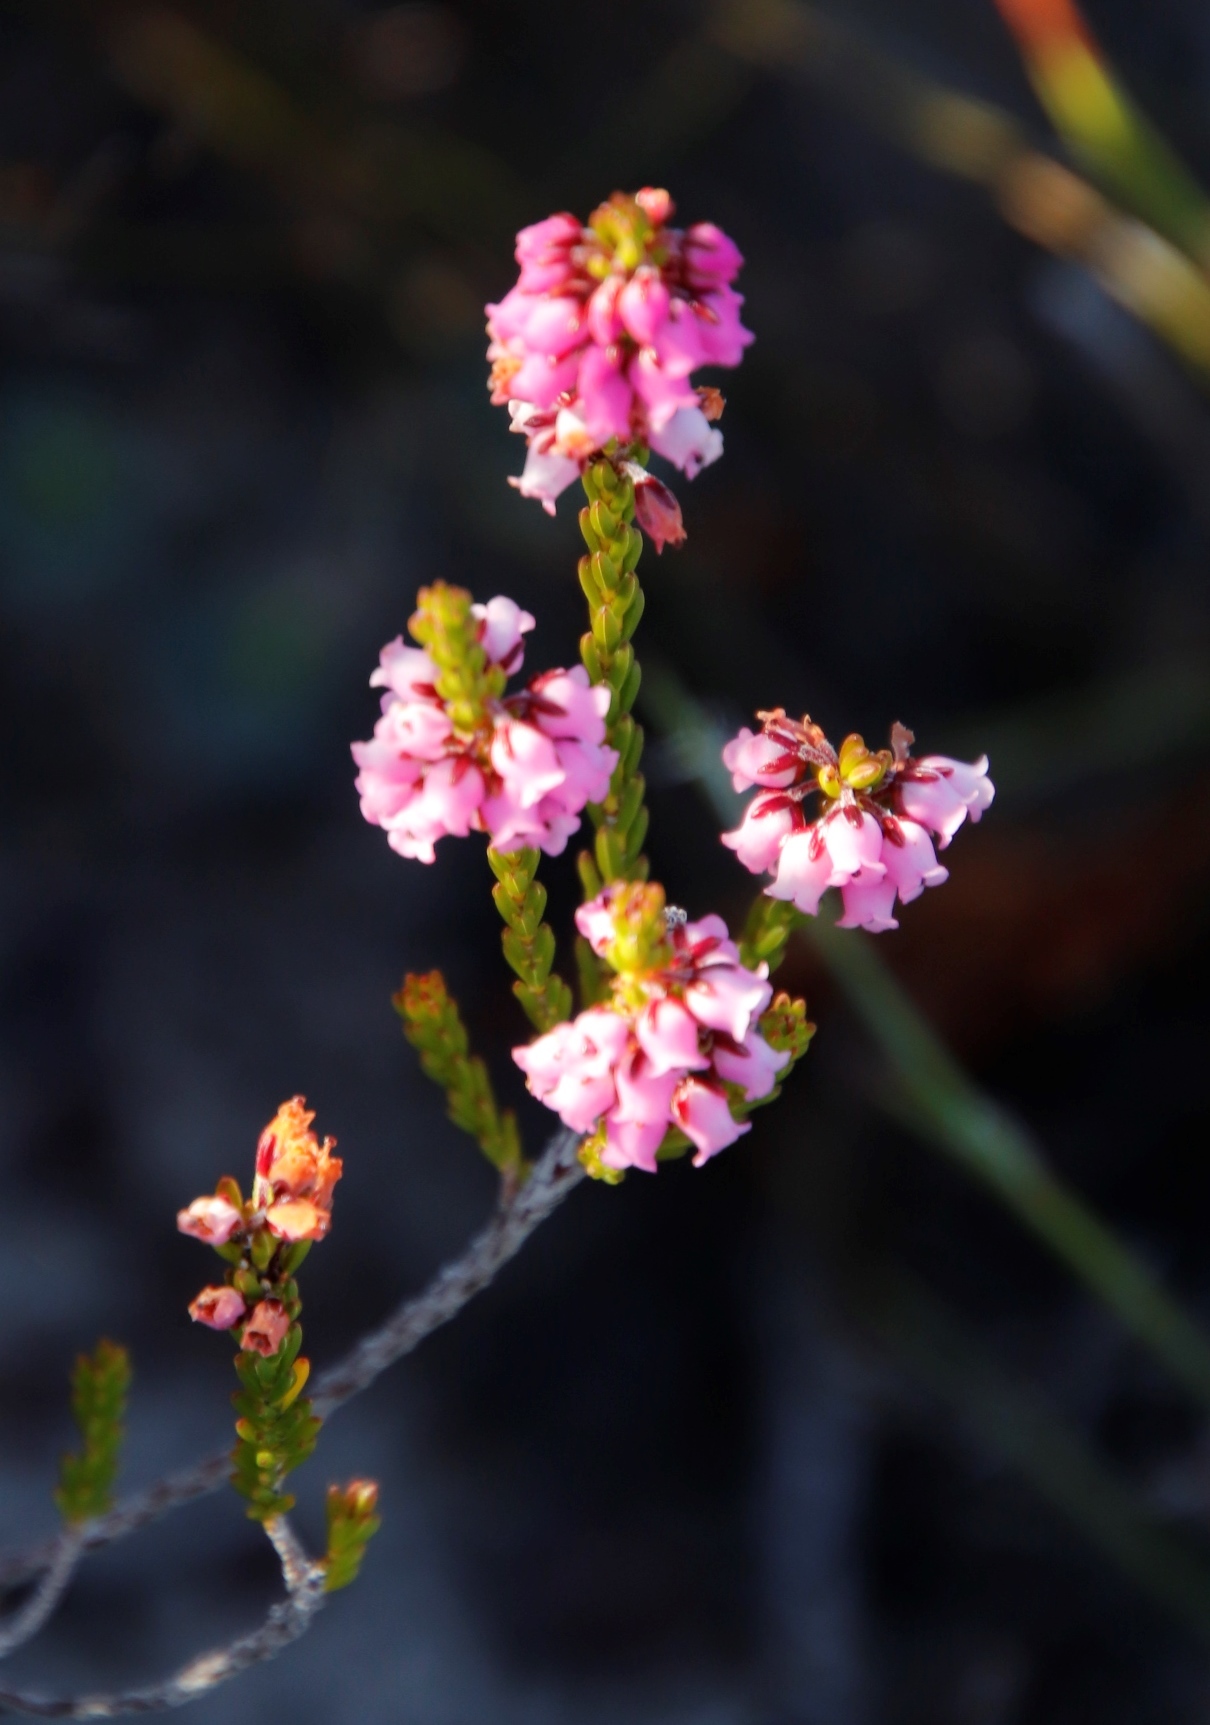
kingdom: Plantae
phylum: Tracheophyta
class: Magnoliopsida
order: Ericales
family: Ericaceae
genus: Erica
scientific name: Erica pulchella
